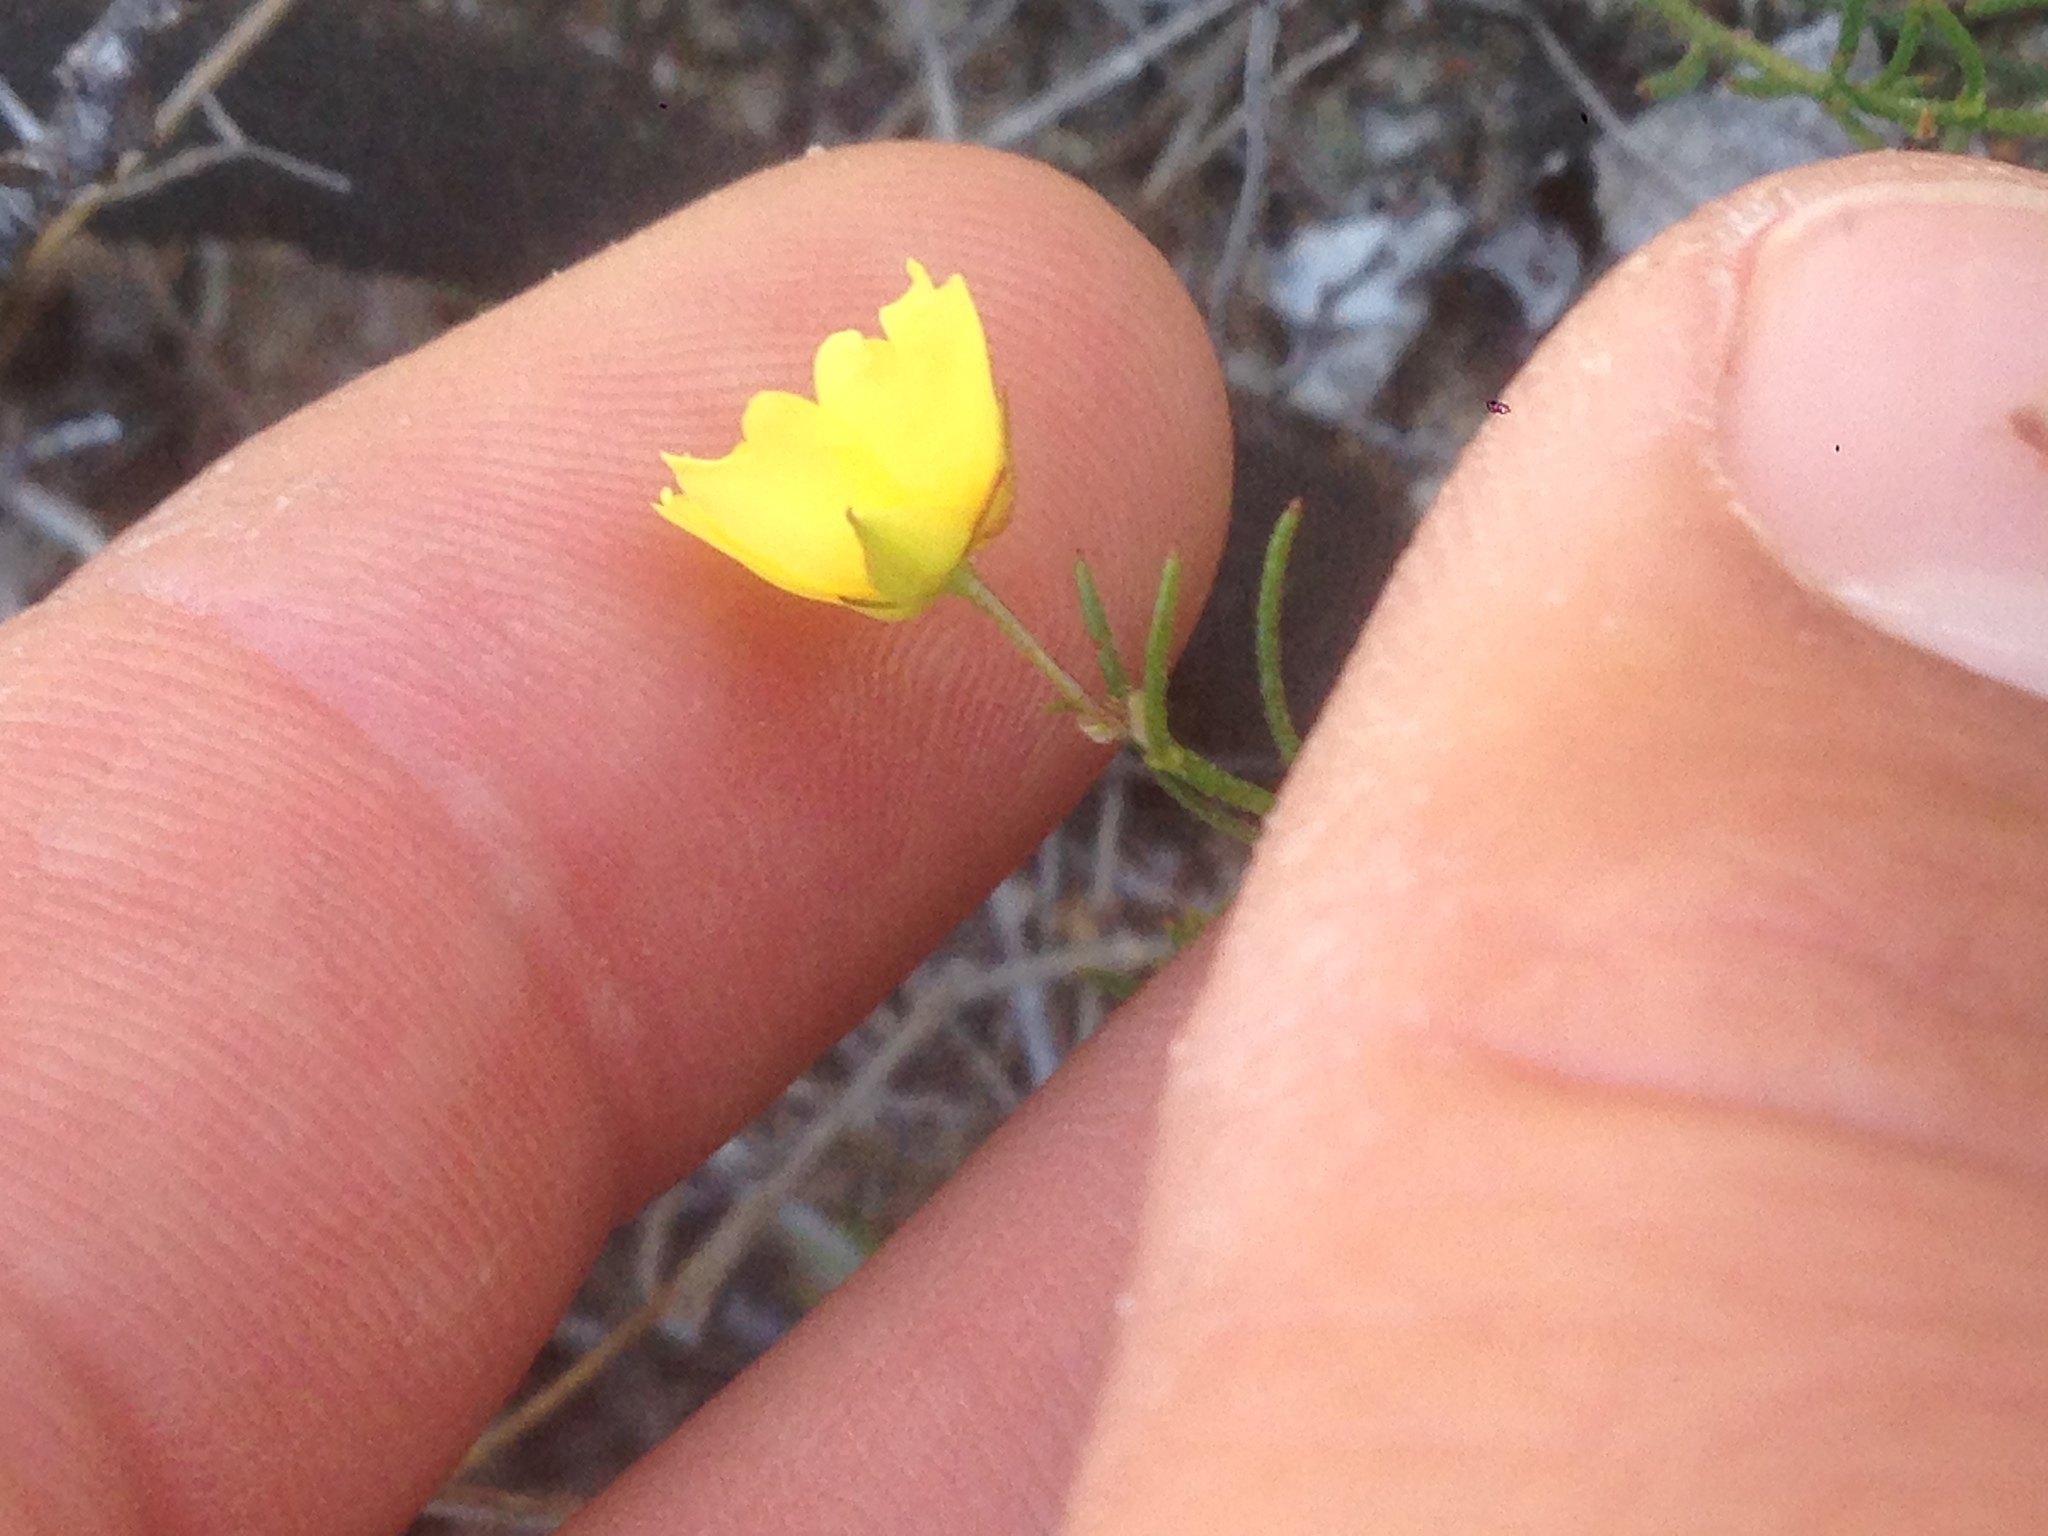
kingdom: Plantae
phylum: Tracheophyta
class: Magnoliopsida
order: Malvales
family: Cistaceae
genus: Crocanthemum
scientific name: Crocanthemum scoparium
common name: Broom-rose
